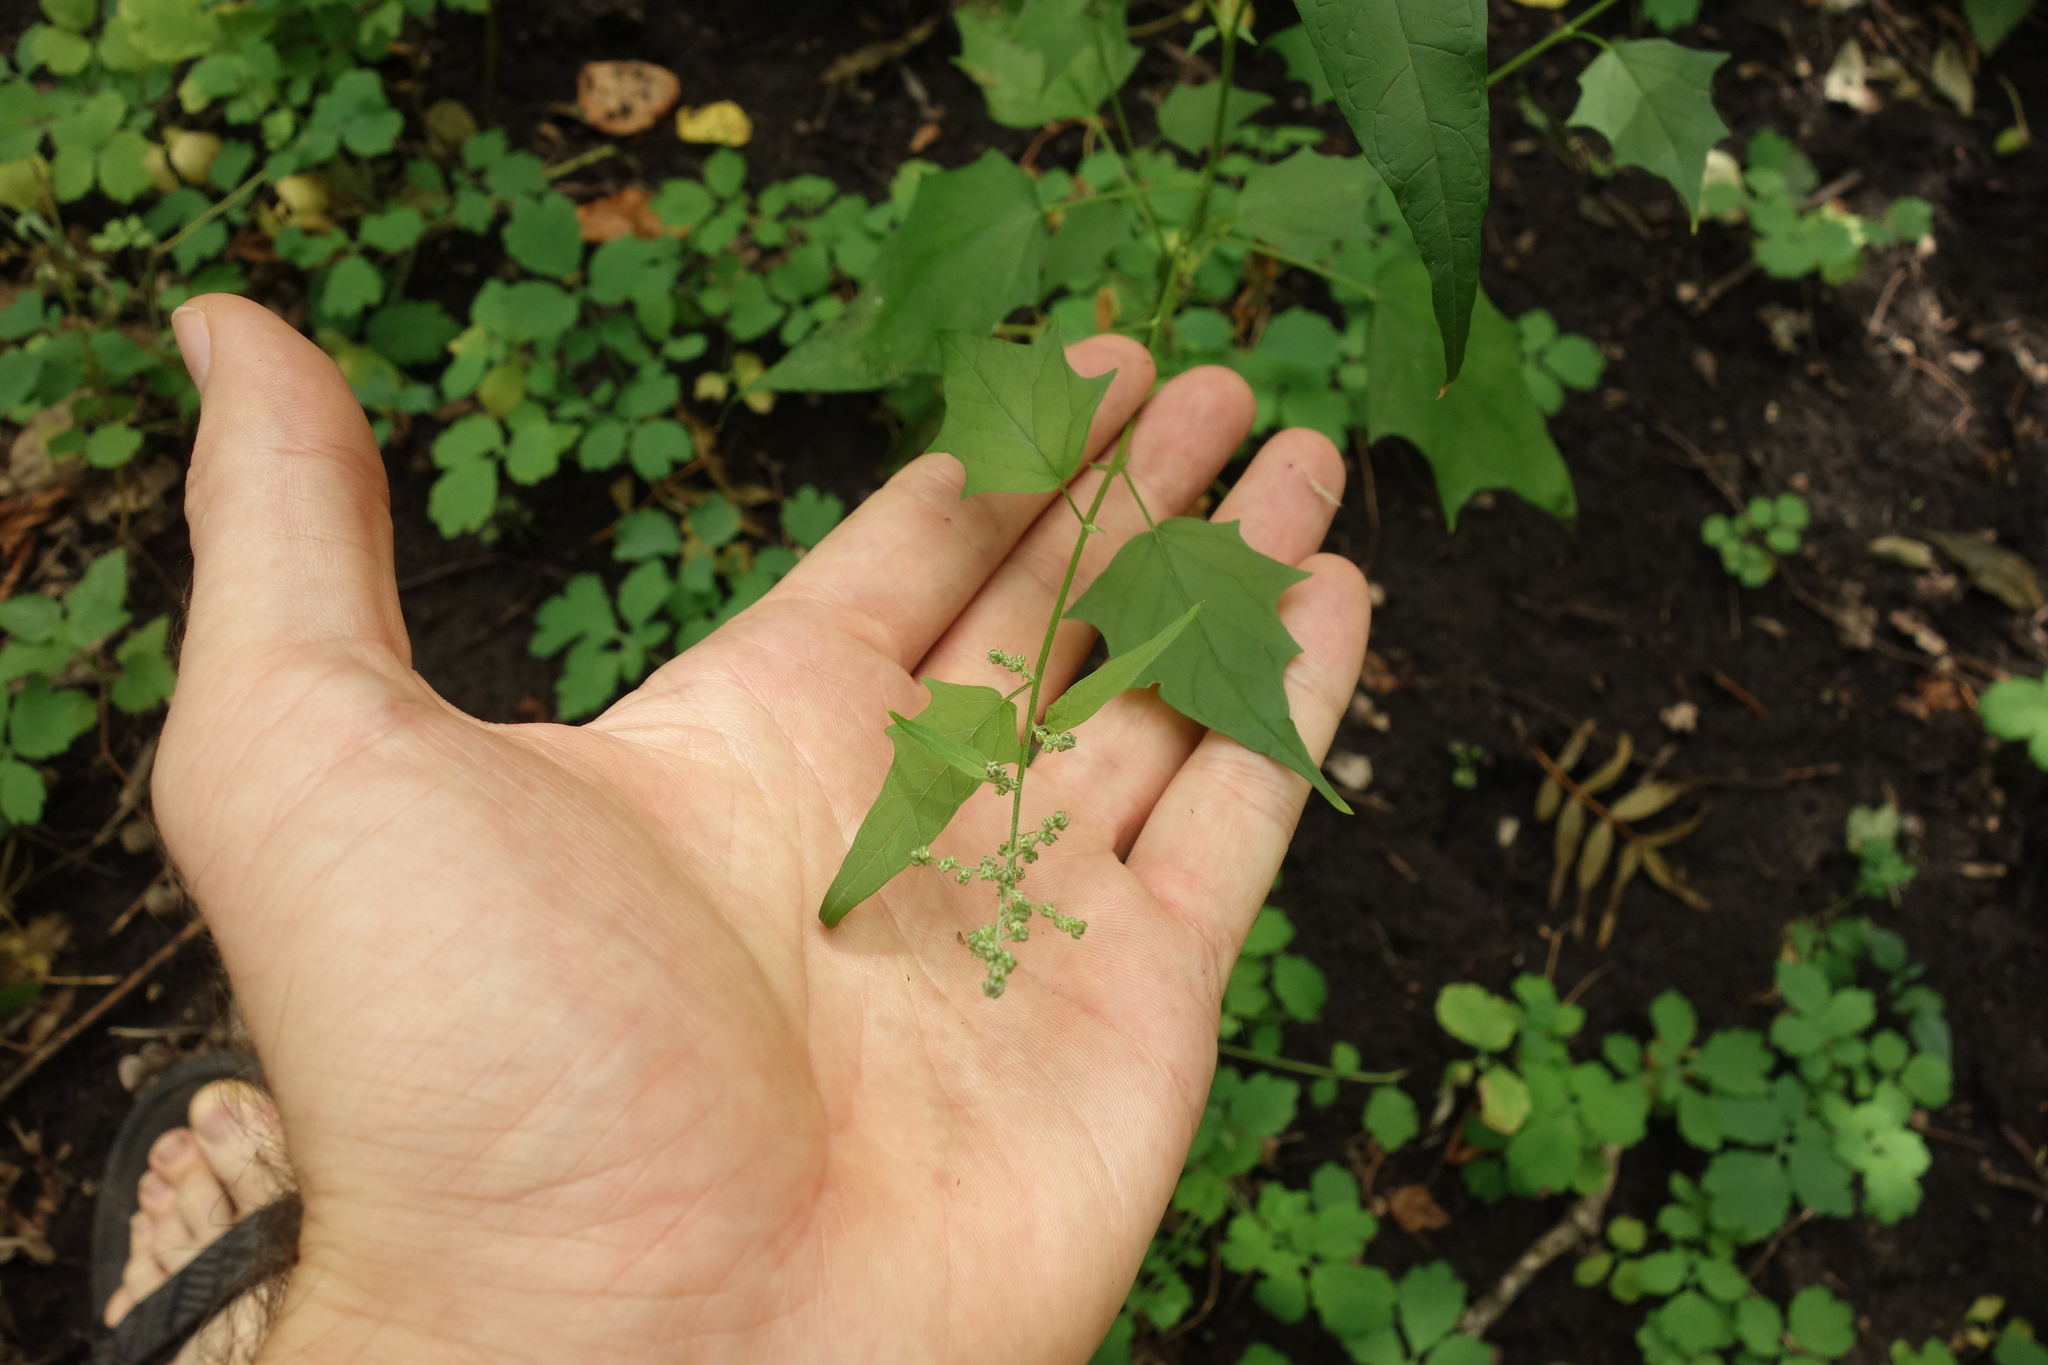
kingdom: Plantae
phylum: Tracheophyta
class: Magnoliopsida
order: Caryophyllales
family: Amaranthaceae
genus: Chenopodiastrum
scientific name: Chenopodiastrum hybridum
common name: Mapleleaf goosefoot
